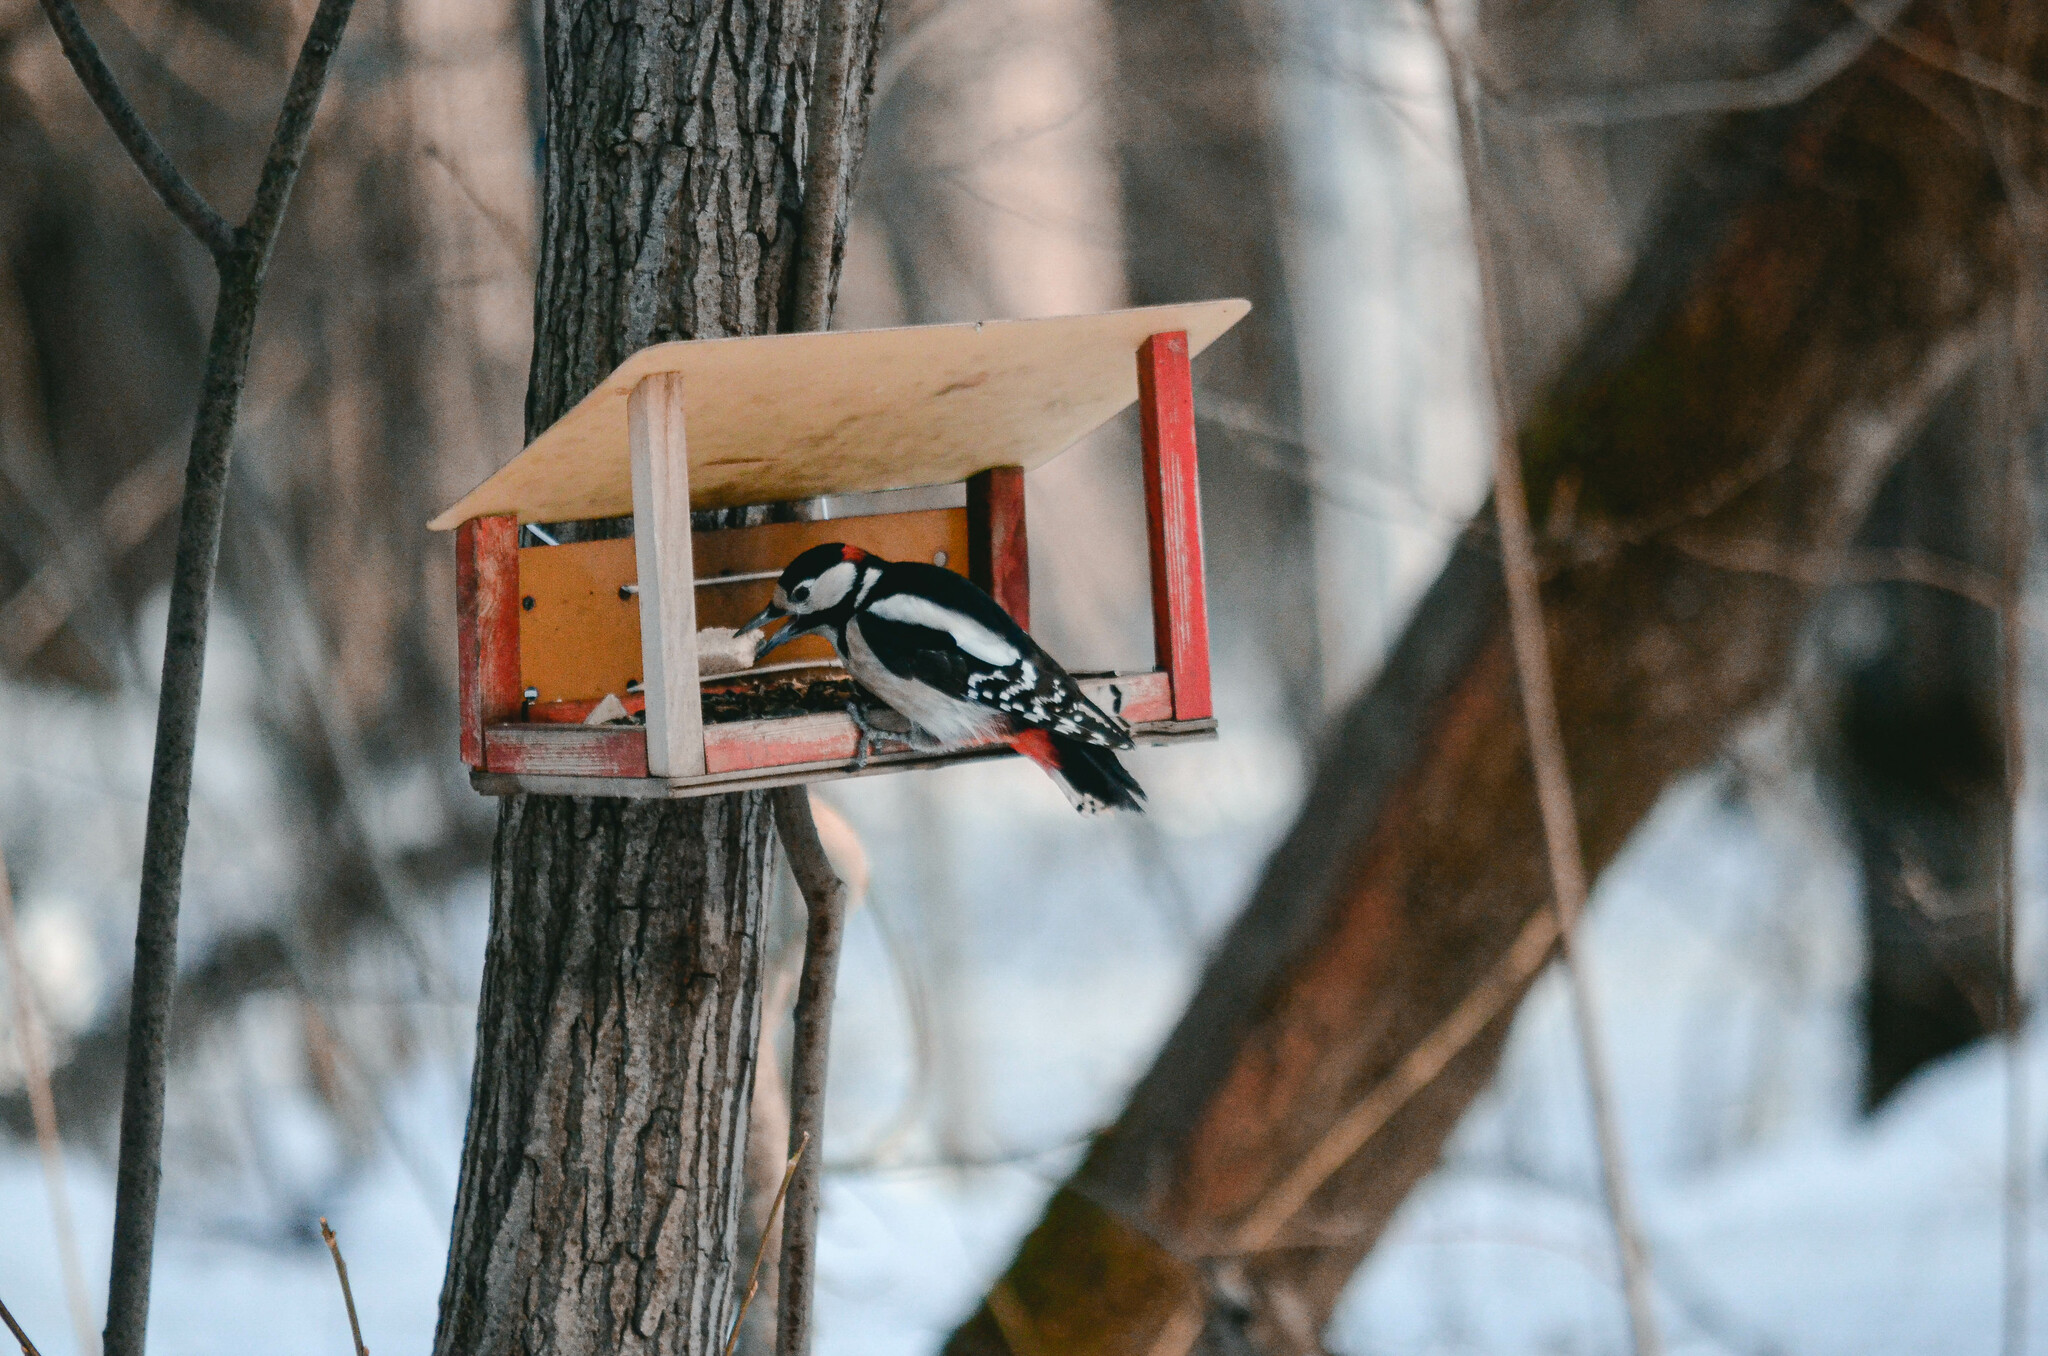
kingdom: Animalia
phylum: Chordata
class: Aves
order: Piciformes
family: Picidae
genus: Dendrocopos
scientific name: Dendrocopos major
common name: Great spotted woodpecker
